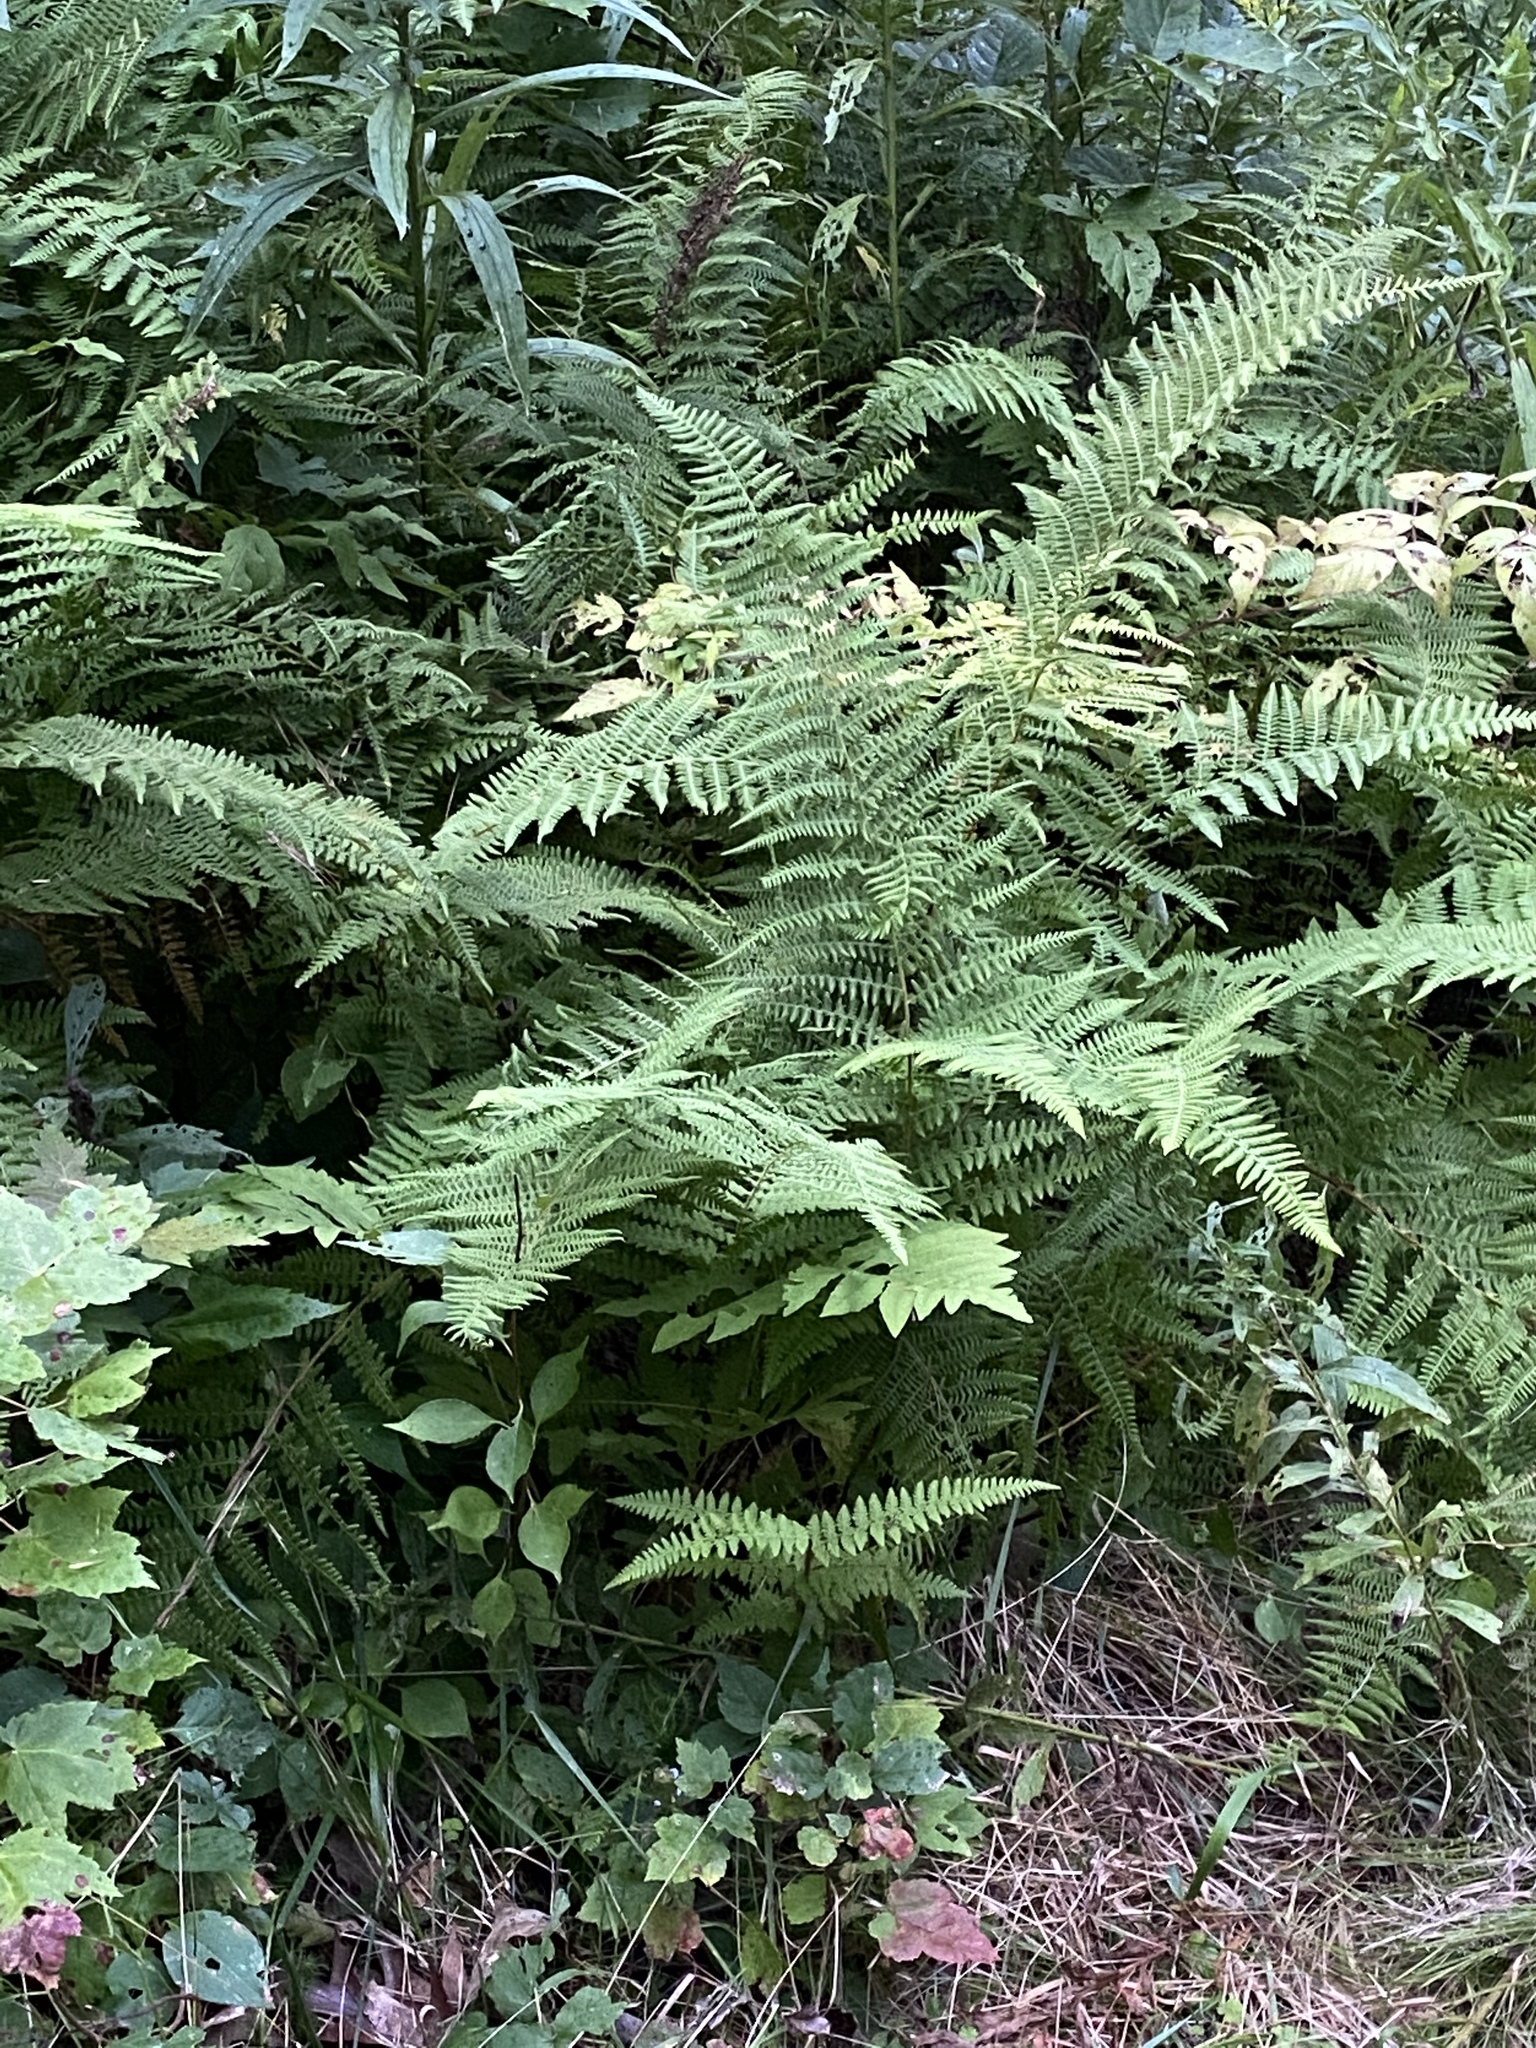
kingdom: Plantae
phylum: Tracheophyta
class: Polypodiopsida
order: Polypodiales
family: Athyriaceae
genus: Athyrium
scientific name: Athyrium angustum
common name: Northern lady fern
